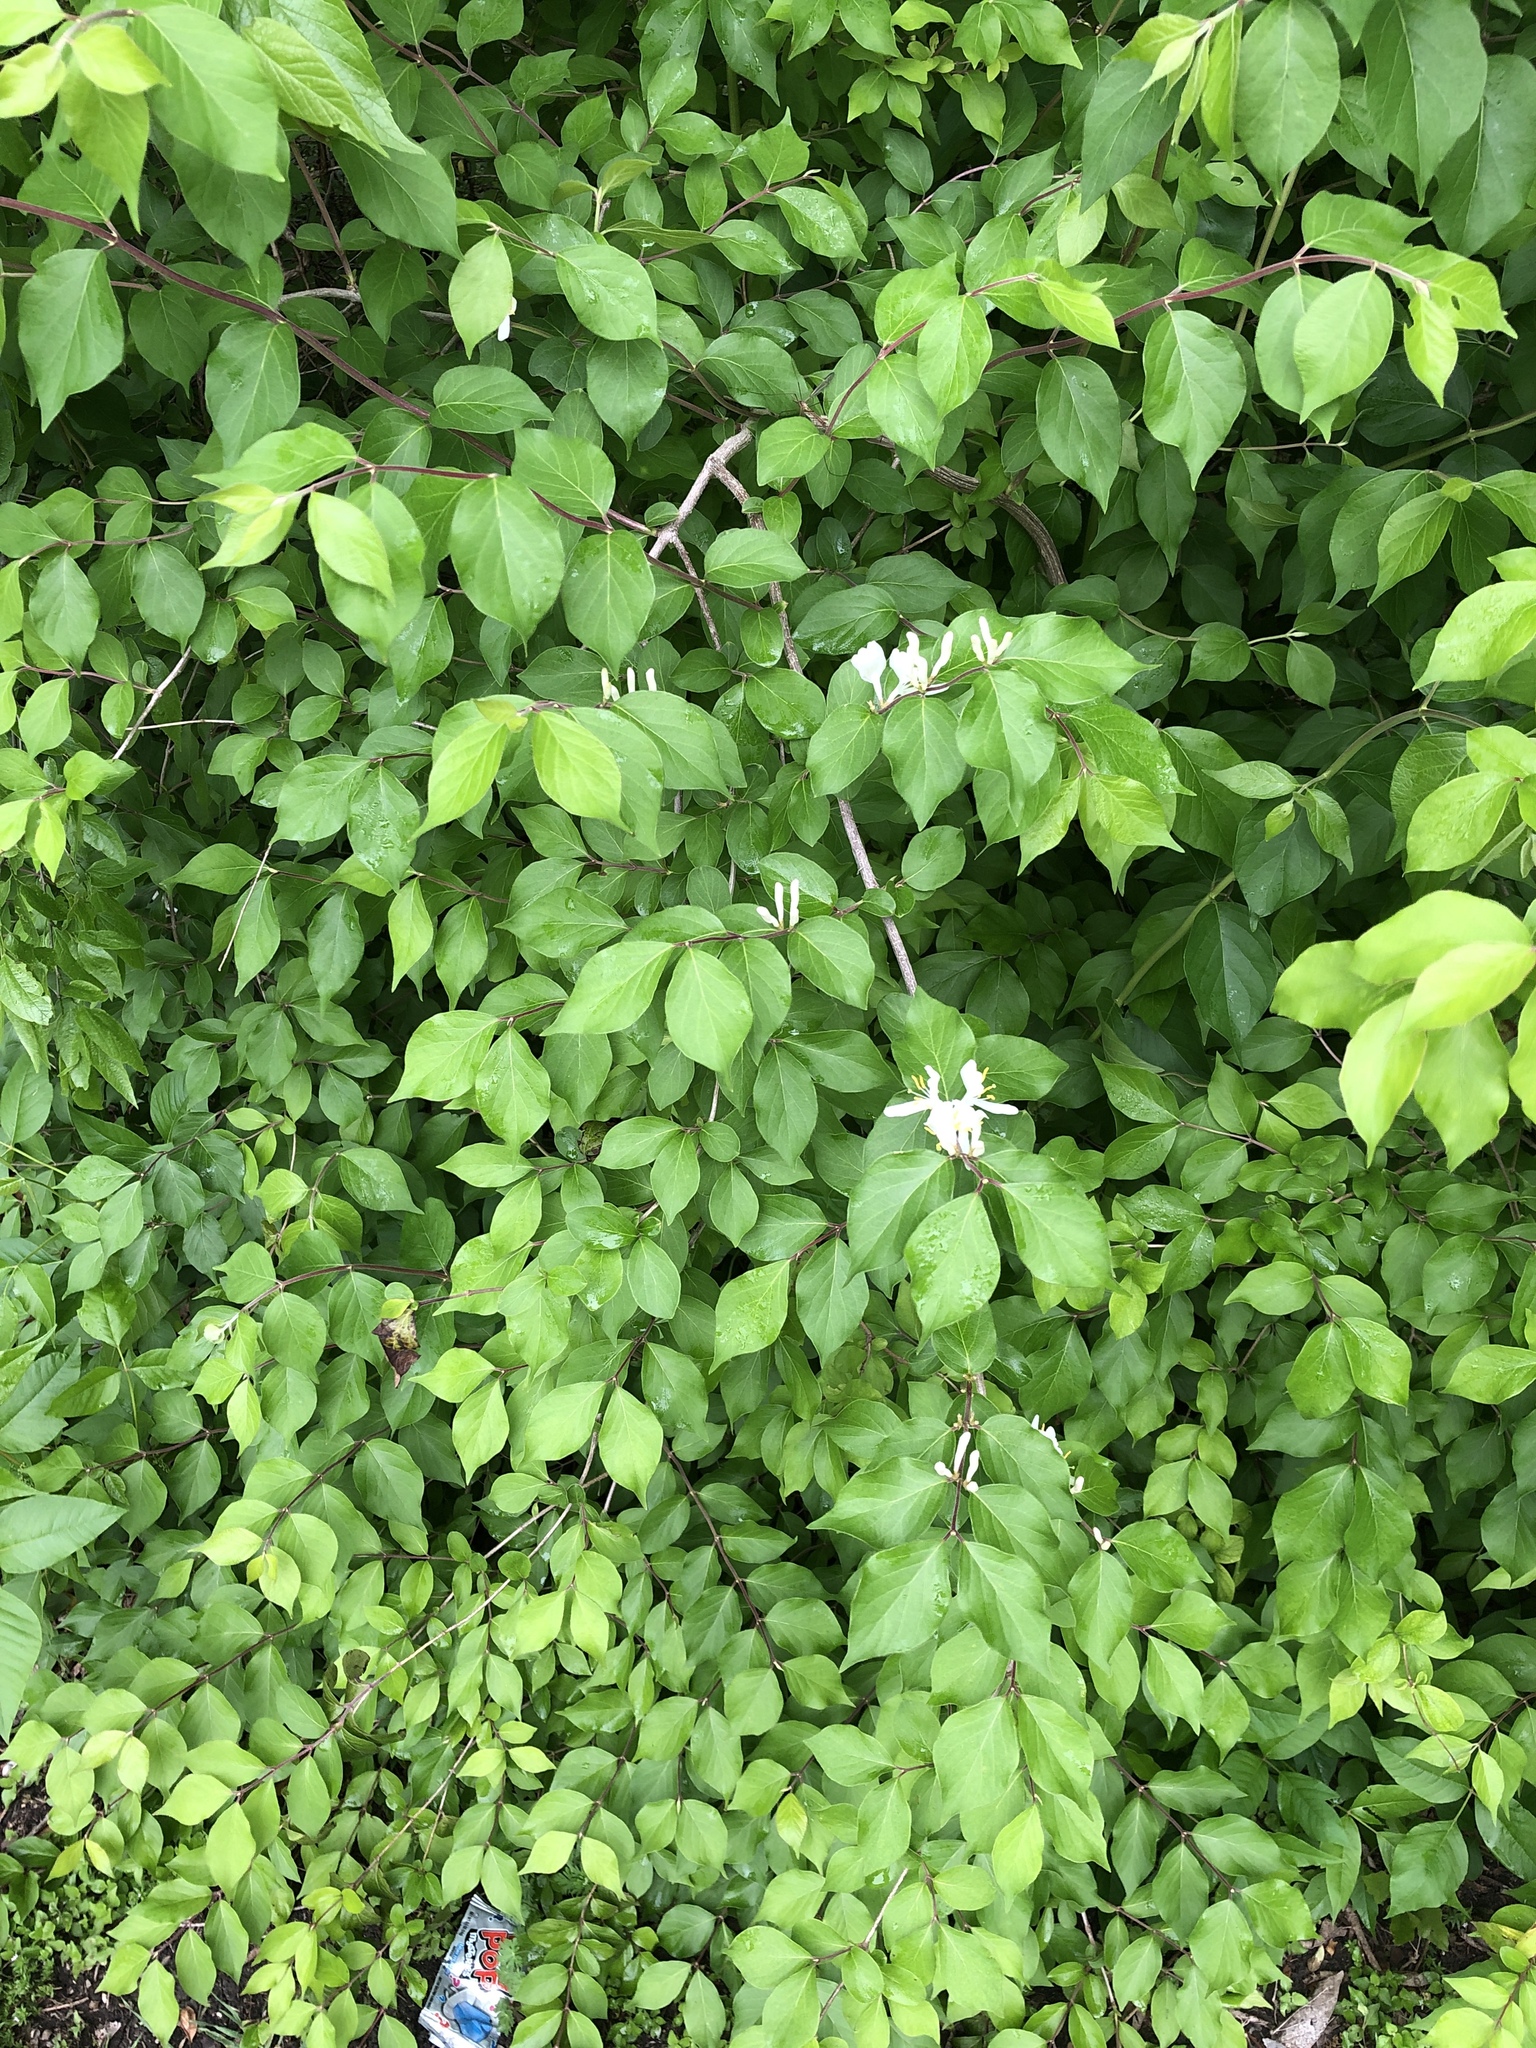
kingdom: Plantae
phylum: Tracheophyta
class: Magnoliopsida
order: Dipsacales
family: Caprifoliaceae
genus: Lonicera
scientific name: Lonicera maackii
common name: Amur honeysuckle
